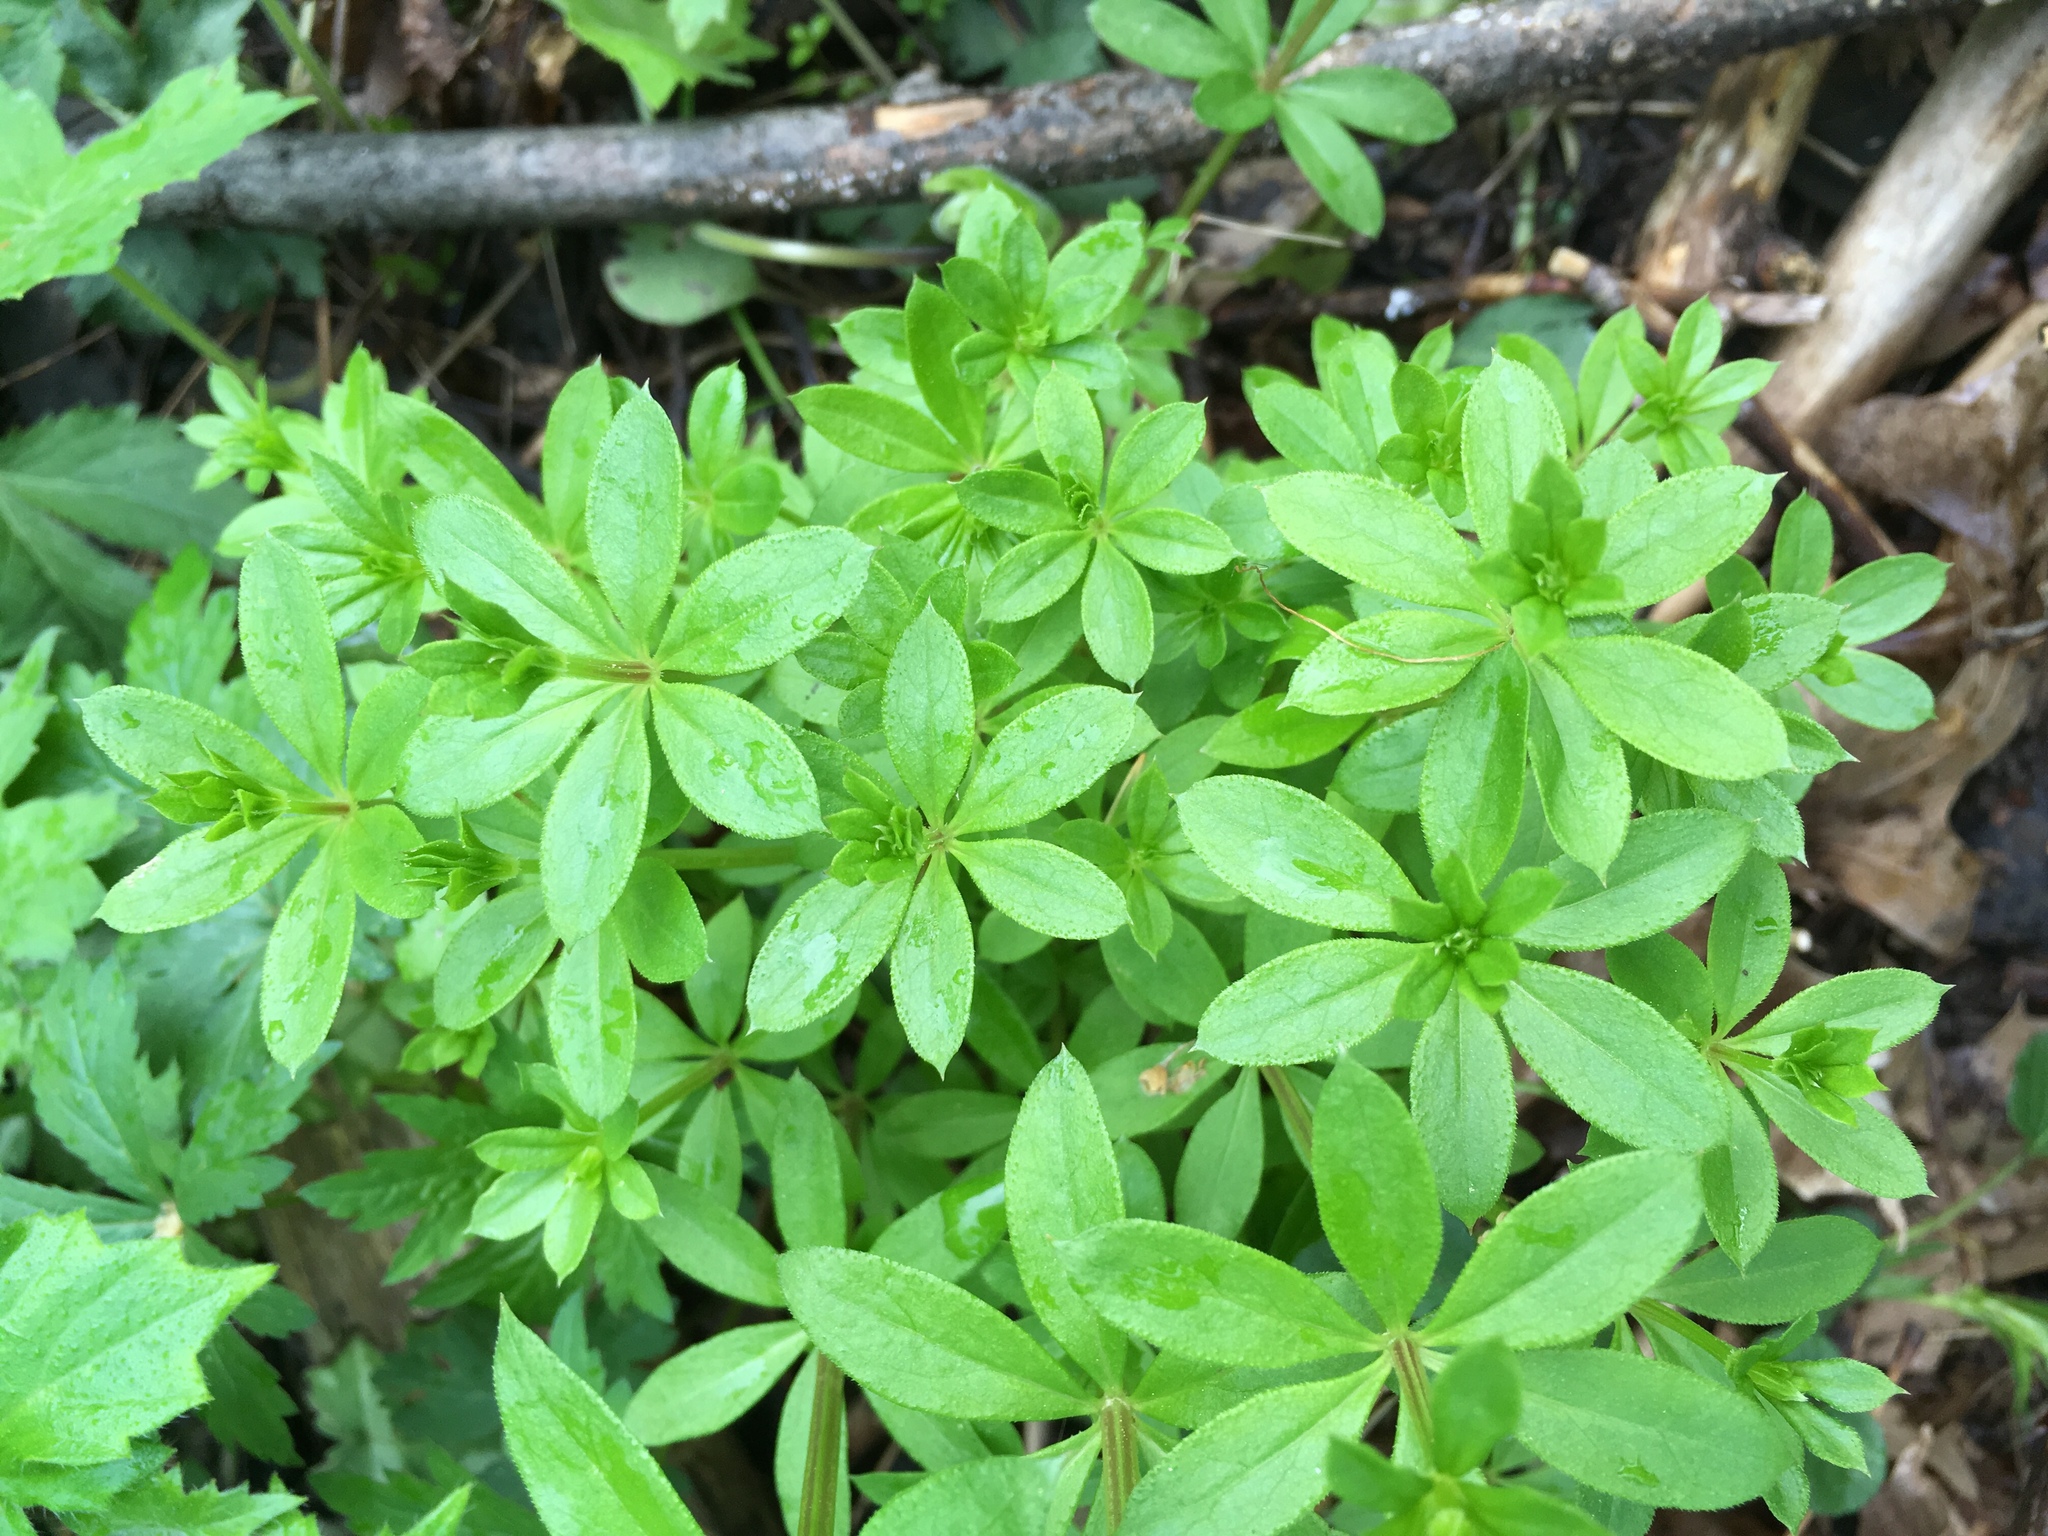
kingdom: Plantae
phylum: Tracheophyta
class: Magnoliopsida
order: Gentianales
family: Rubiaceae
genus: Galium
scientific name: Galium triflorum
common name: Fragrant bedstraw
